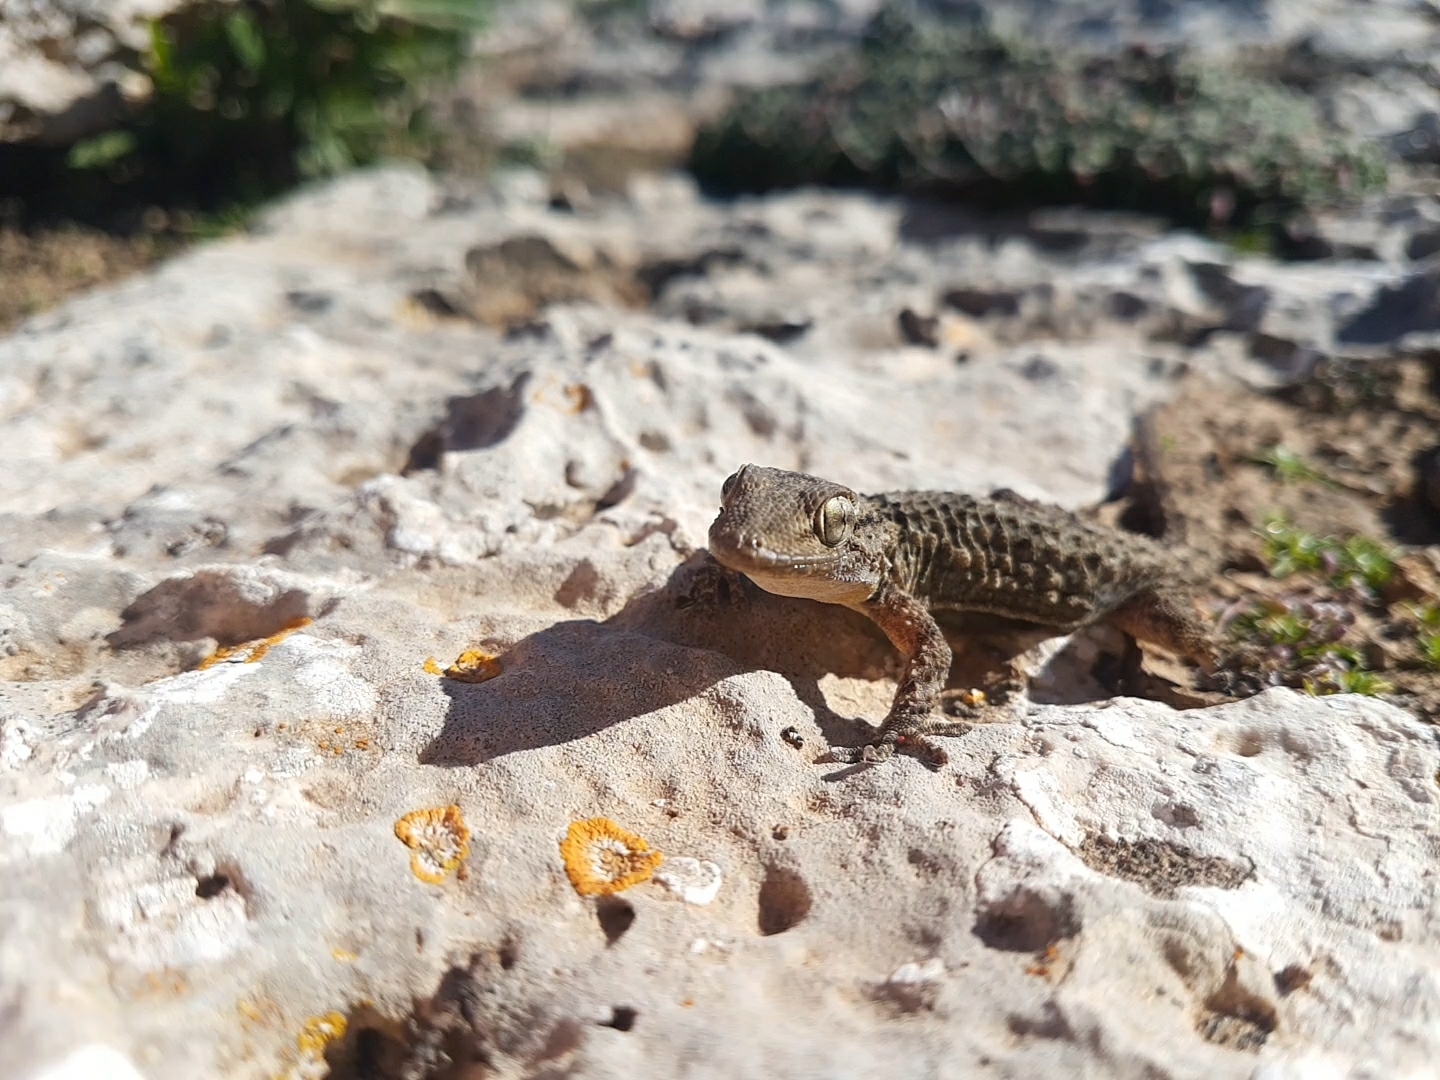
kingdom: Animalia
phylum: Chordata
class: Squamata
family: Phyllodactylidae
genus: Tarentola
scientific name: Tarentola mauritanica
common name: Moorish gecko
